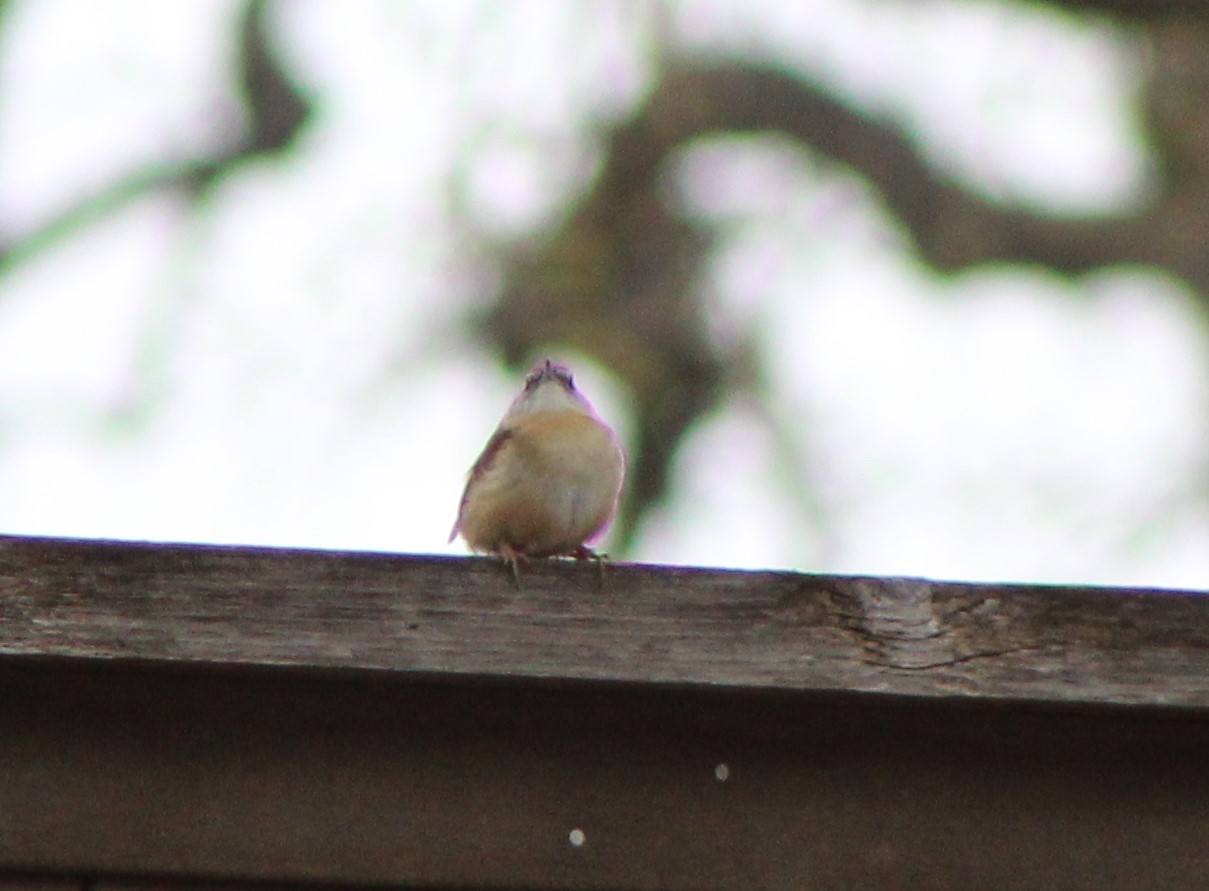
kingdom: Animalia
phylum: Chordata
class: Aves
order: Passeriformes
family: Troglodytidae
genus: Thryothorus
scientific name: Thryothorus ludovicianus
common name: Carolina wren
